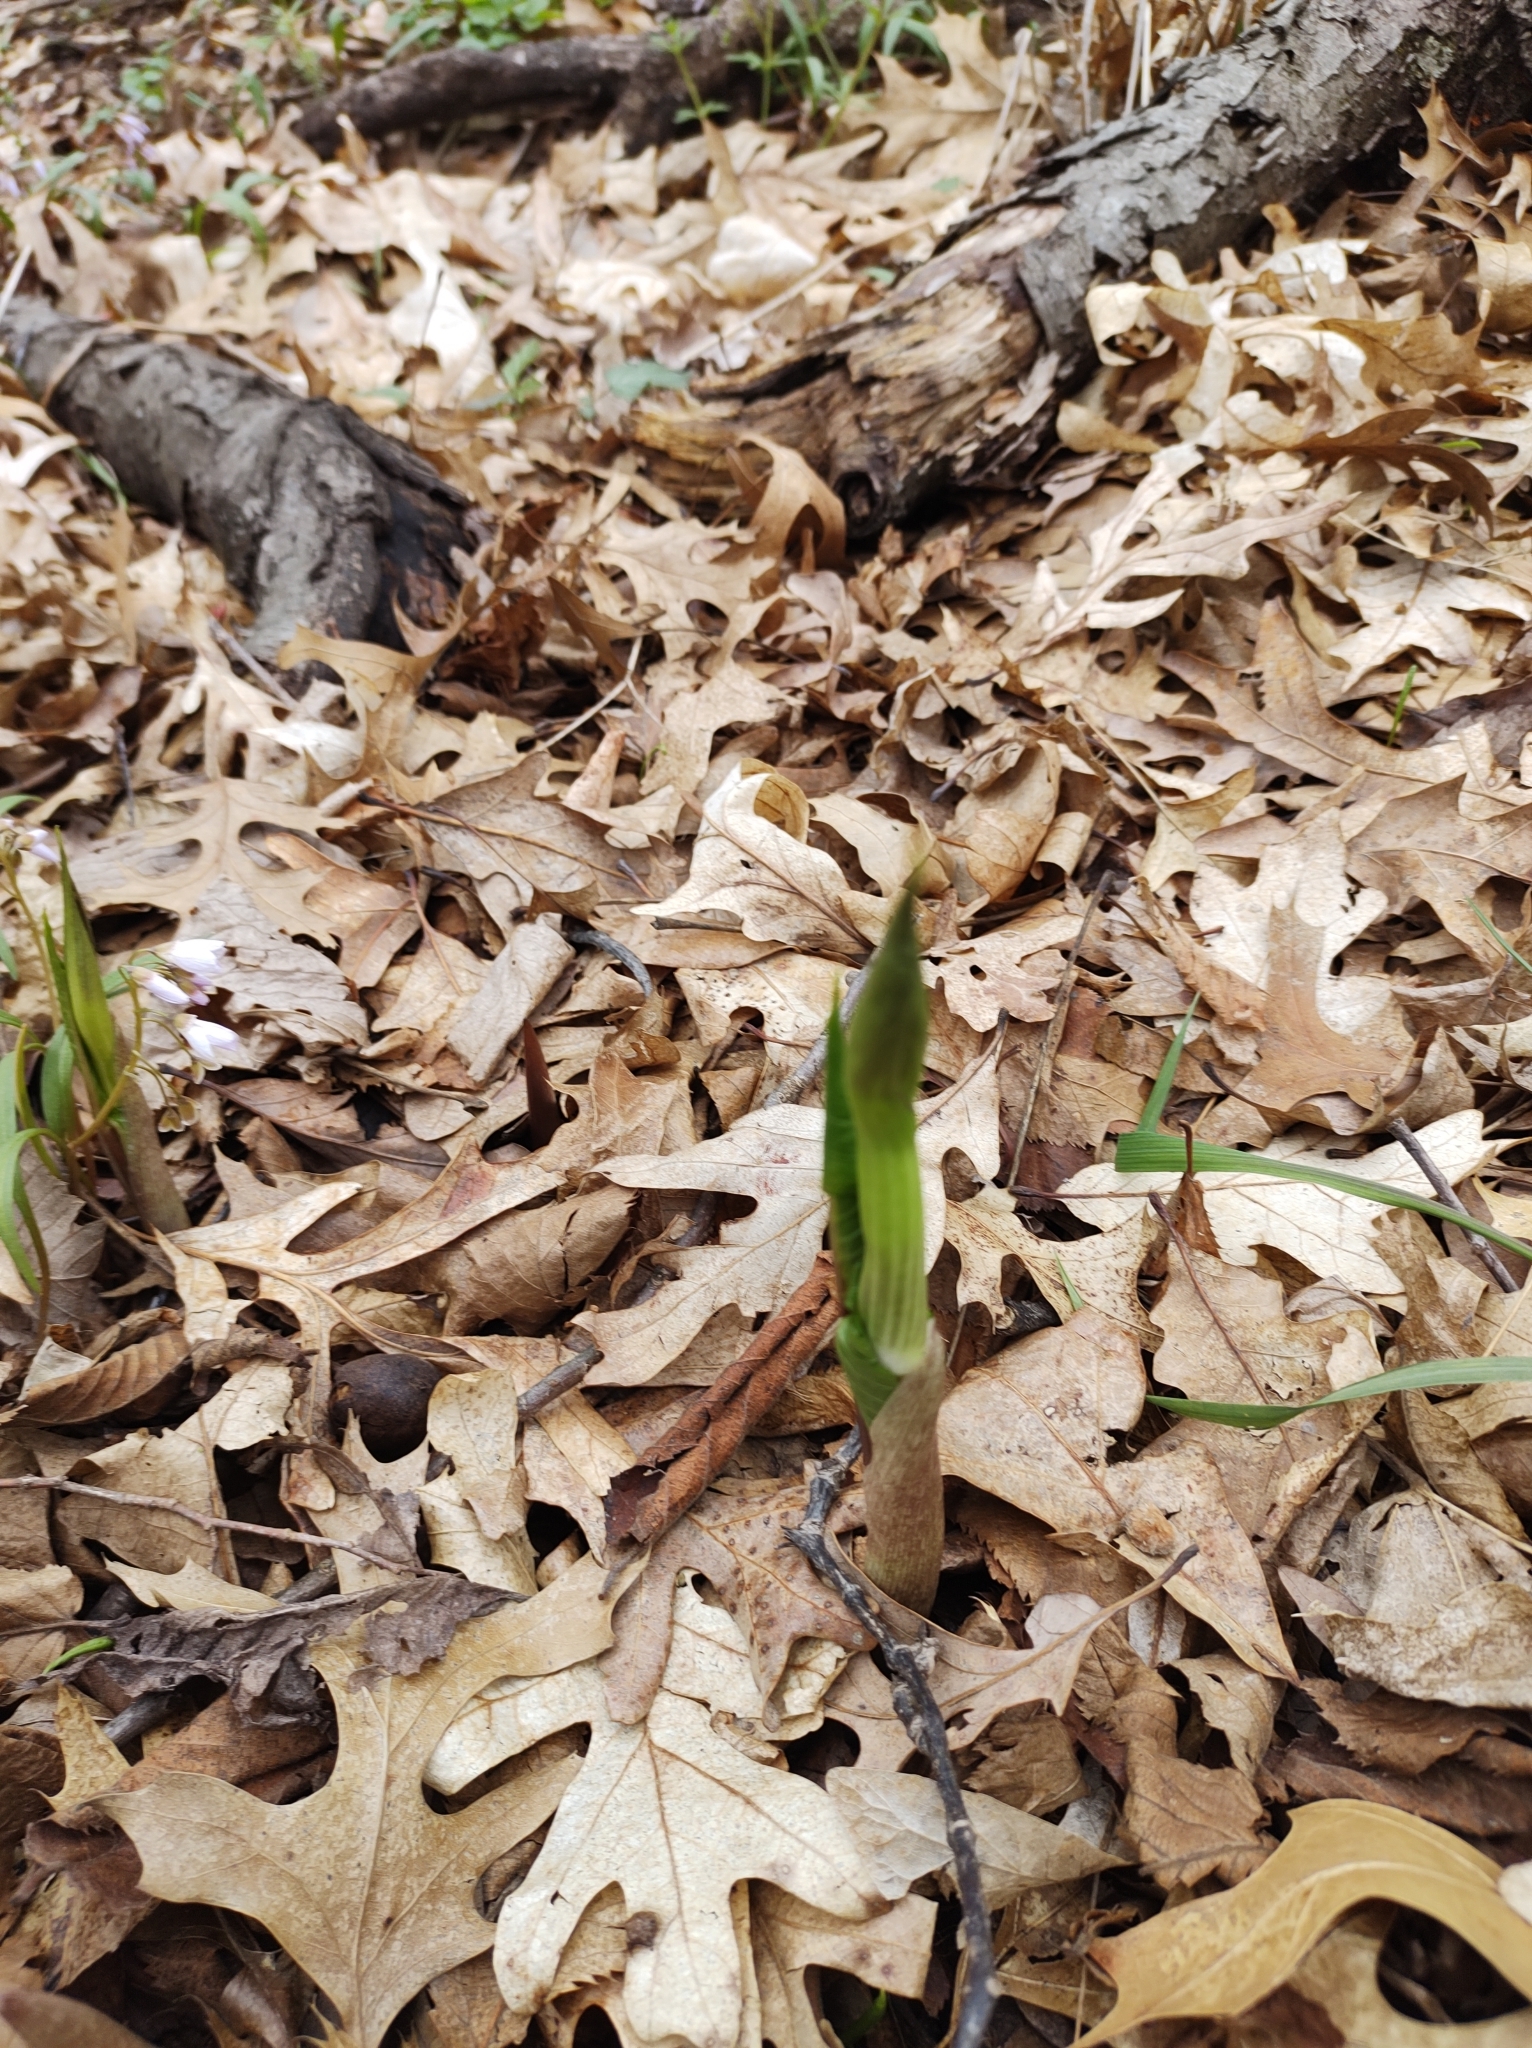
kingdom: Plantae
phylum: Tracheophyta
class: Liliopsida
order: Alismatales
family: Araceae
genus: Arisaema
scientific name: Arisaema triphyllum
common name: Jack-in-the-pulpit
